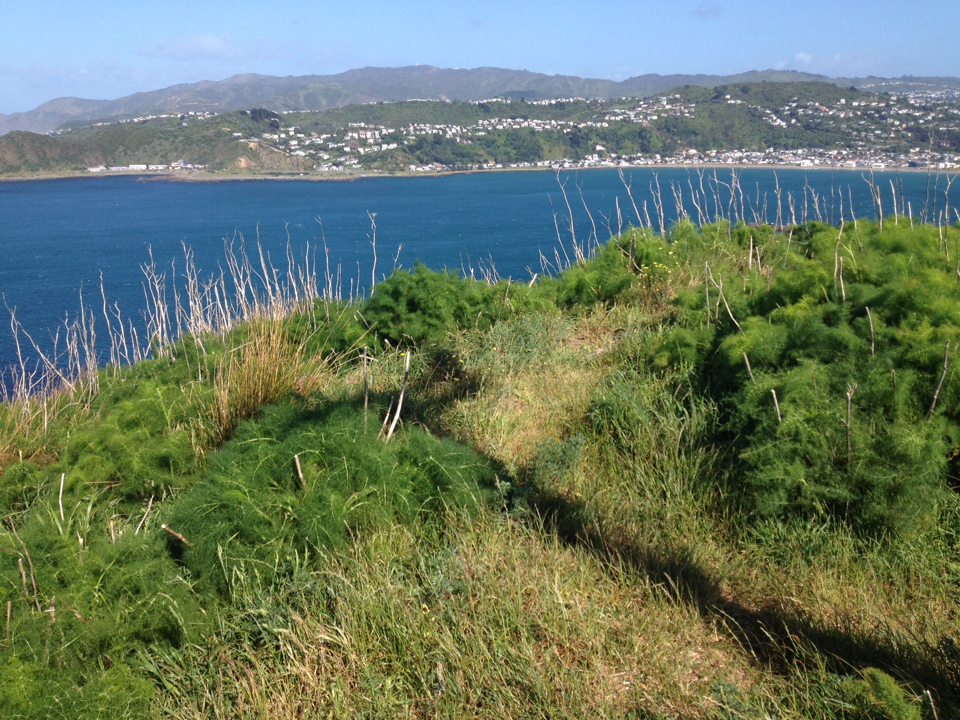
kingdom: Plantae
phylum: Tracheophyta
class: Magnoliopsida
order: Apiales
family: Apiaceae
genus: Foeniculum
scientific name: Foeniculum vulgare
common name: Fennel
